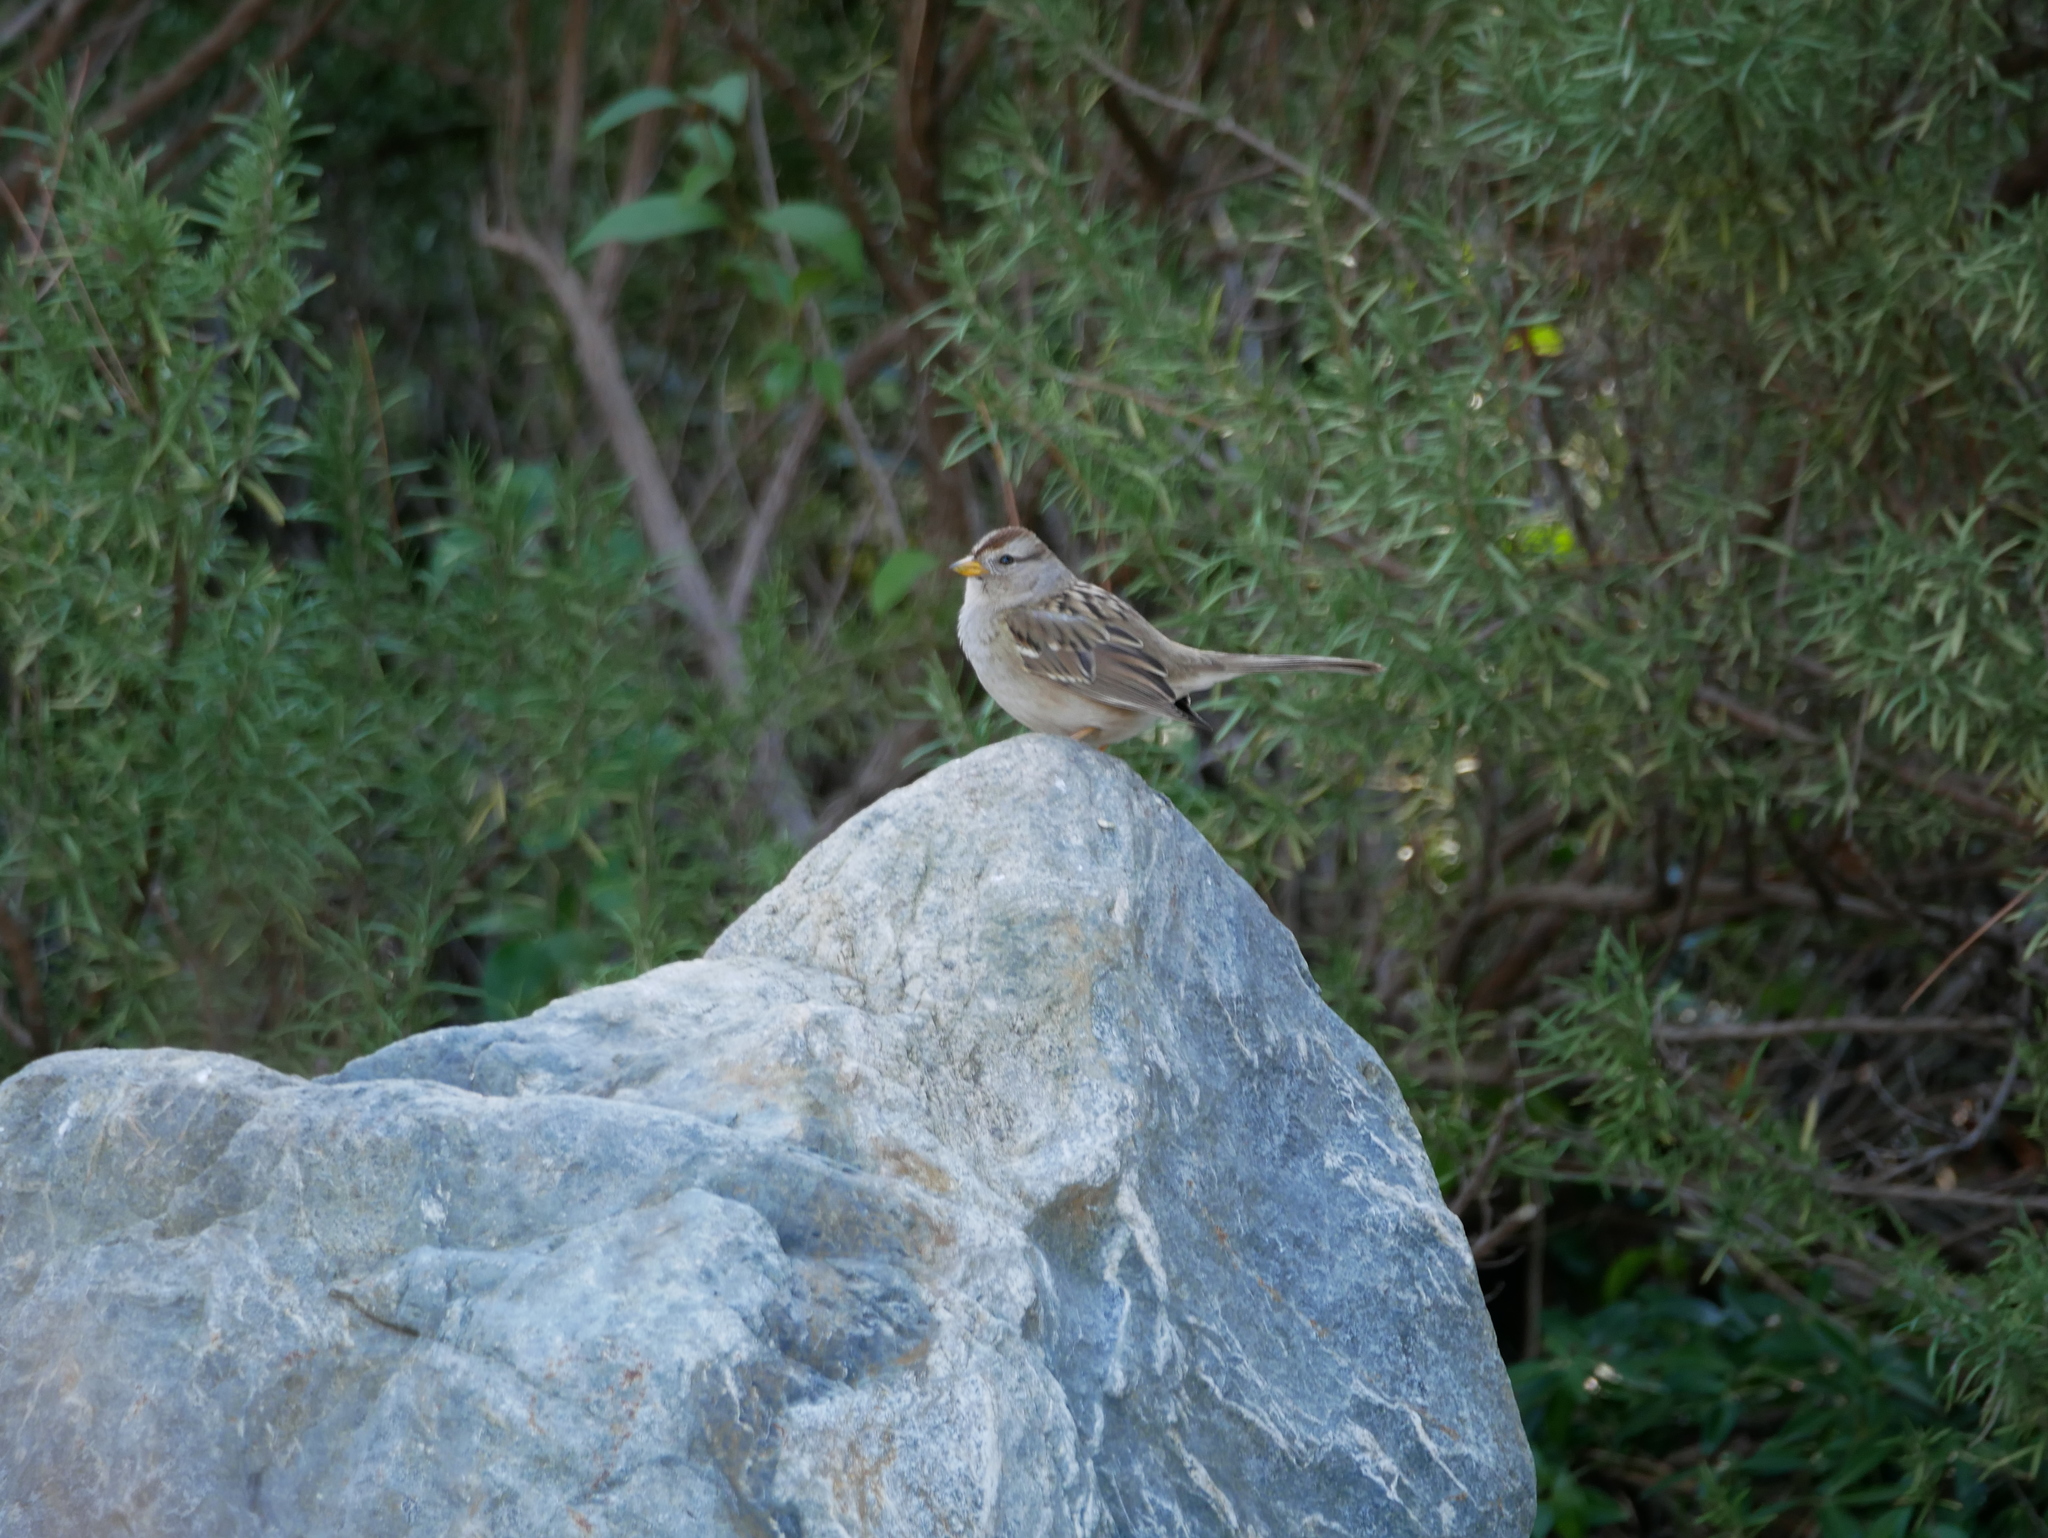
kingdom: Animalia
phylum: Chordata
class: Aves
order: Passeriformes
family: Passerellidae
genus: Zonotrichia
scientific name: Zonotrichia leucophrys
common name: White-crowned sparrow
